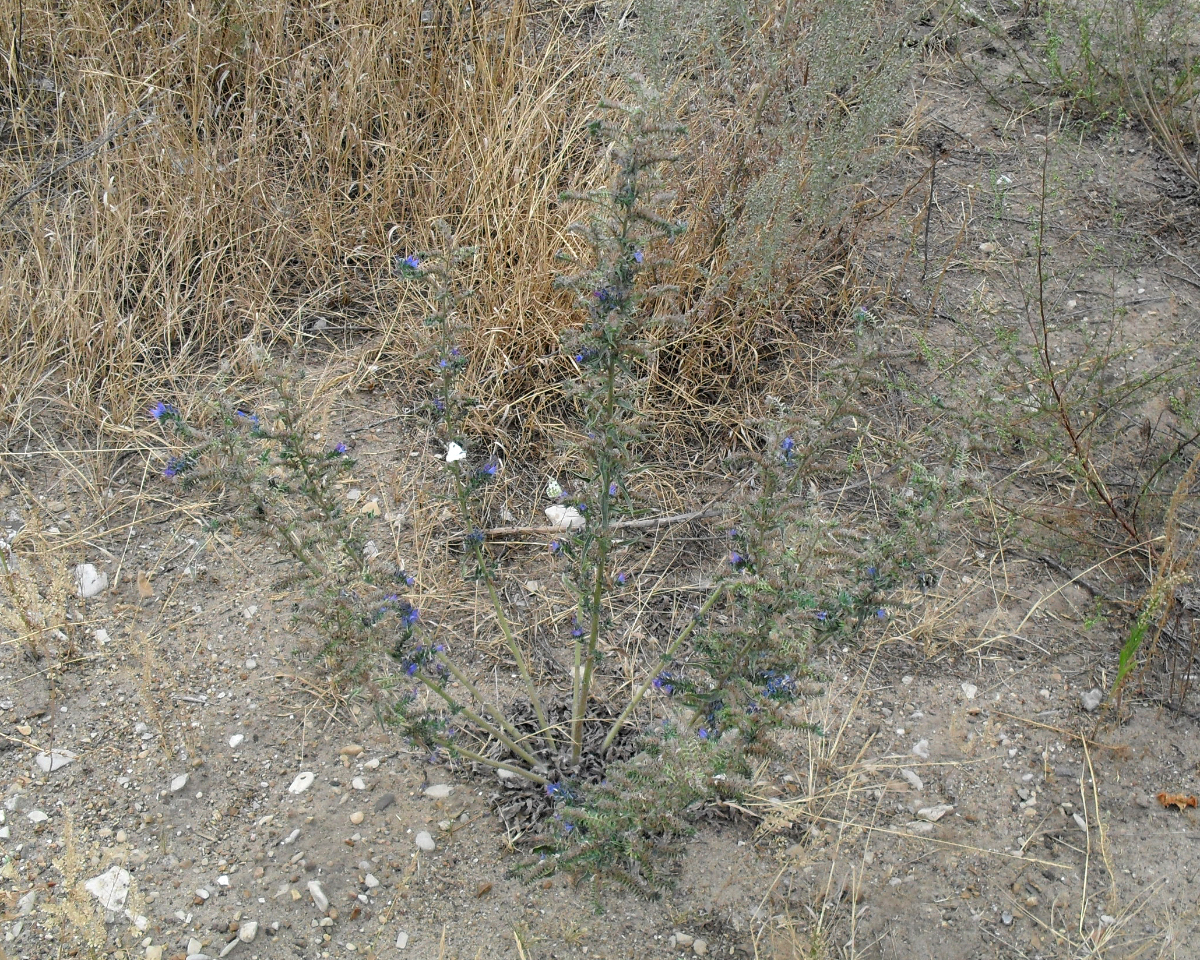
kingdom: Plantae
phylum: Tracheophyta
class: Magnoliopsida
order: Boraginales
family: Boraginaceae
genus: Echium
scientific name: Echium vulgare
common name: Common viper's bugloss
